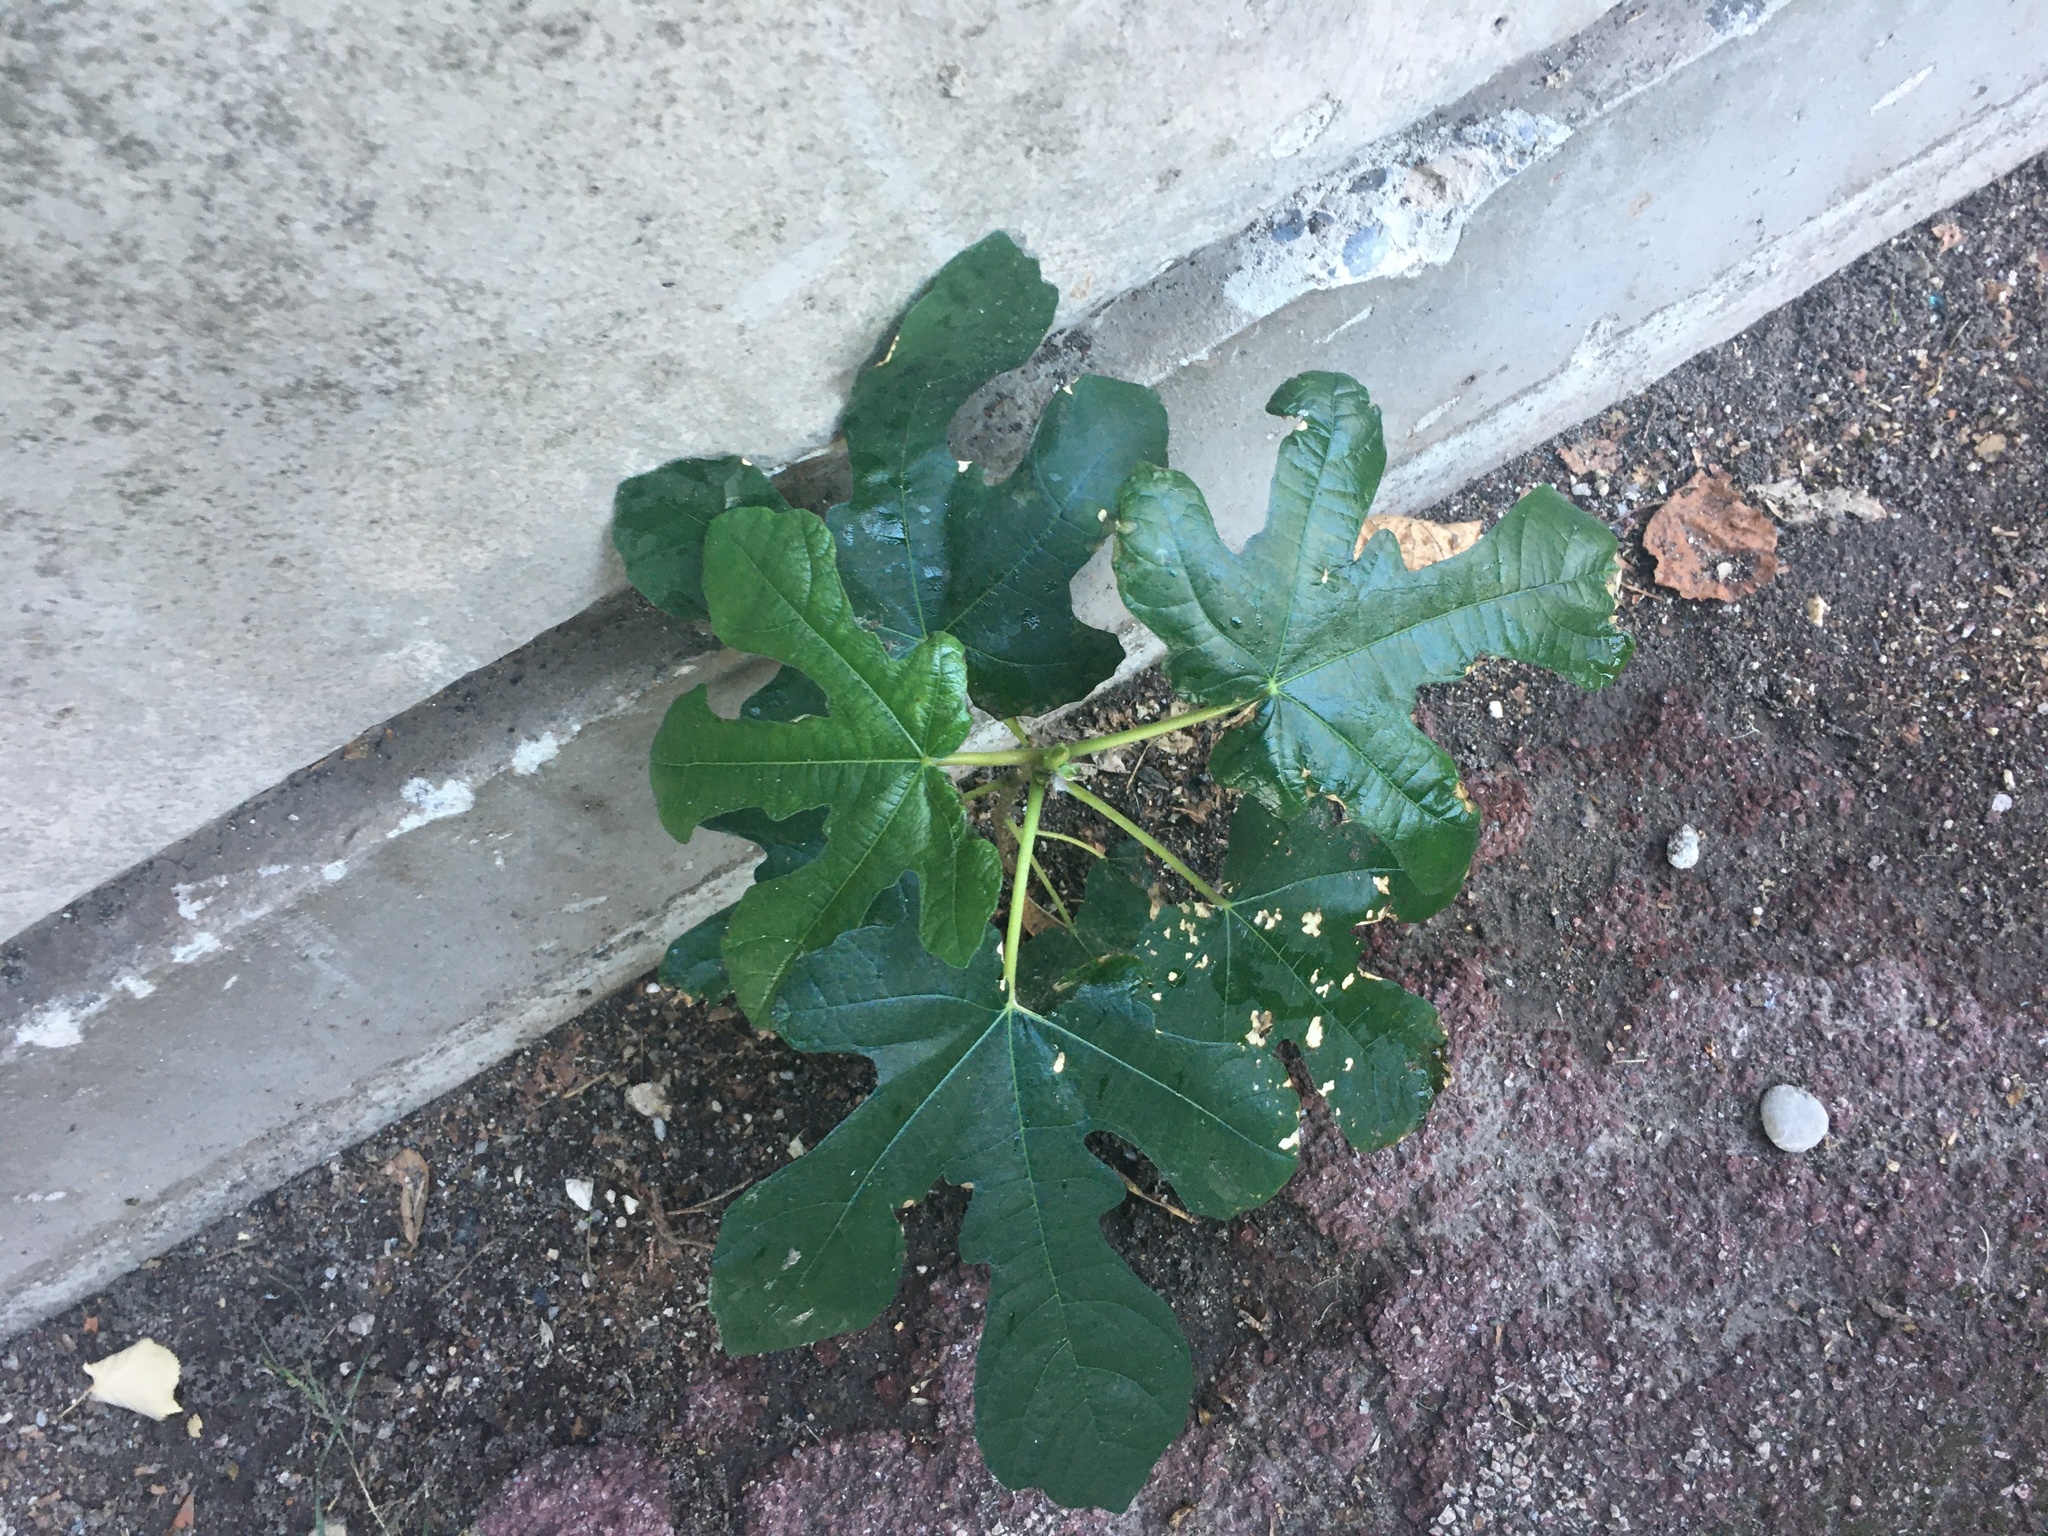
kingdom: Plantae
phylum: Tracheophyta
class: Magnoliopsida
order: Rosales
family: Moraceae
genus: Ficus
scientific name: Ficus carica
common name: Fig
